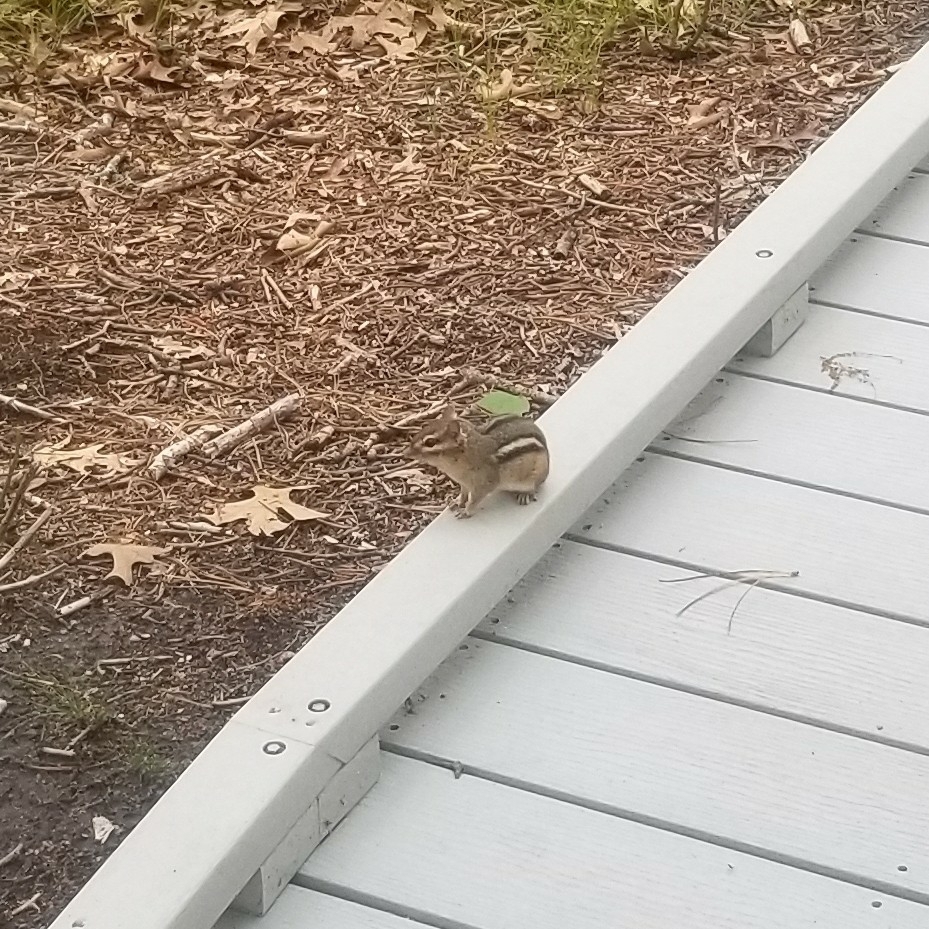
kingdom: Animalia
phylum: Chordata
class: Mammalia
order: Rodentia
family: Sciuridae
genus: Tamias
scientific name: Tamias striatus
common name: Eastern chipmunk
